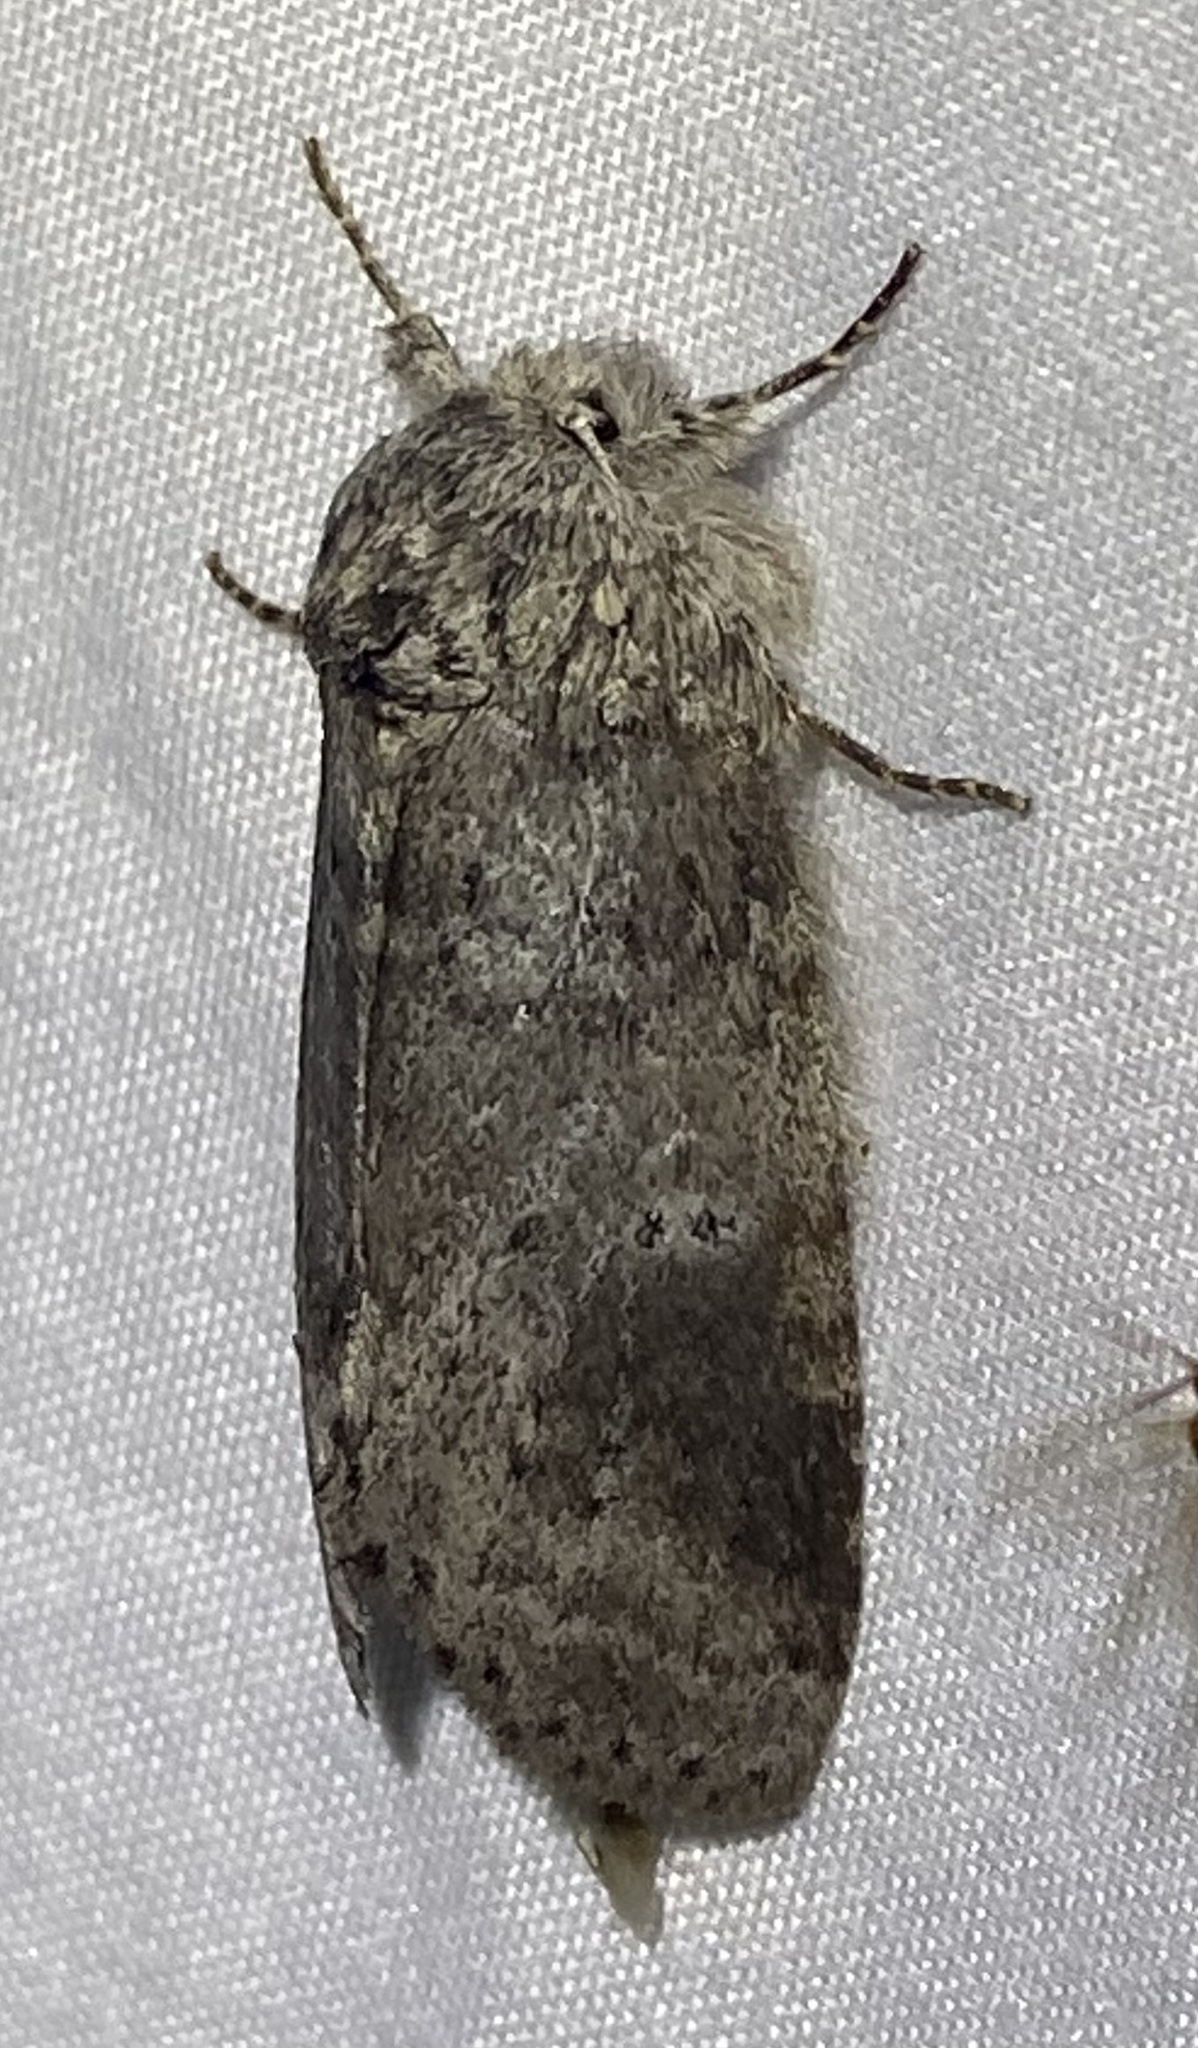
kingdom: Animalia
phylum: Arthropoda
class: Insecta
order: Lepidoptera
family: Notodontidae
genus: Lochmaeus
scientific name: Lochmaeus manteo
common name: Variable oakleaf caterpillar moth
